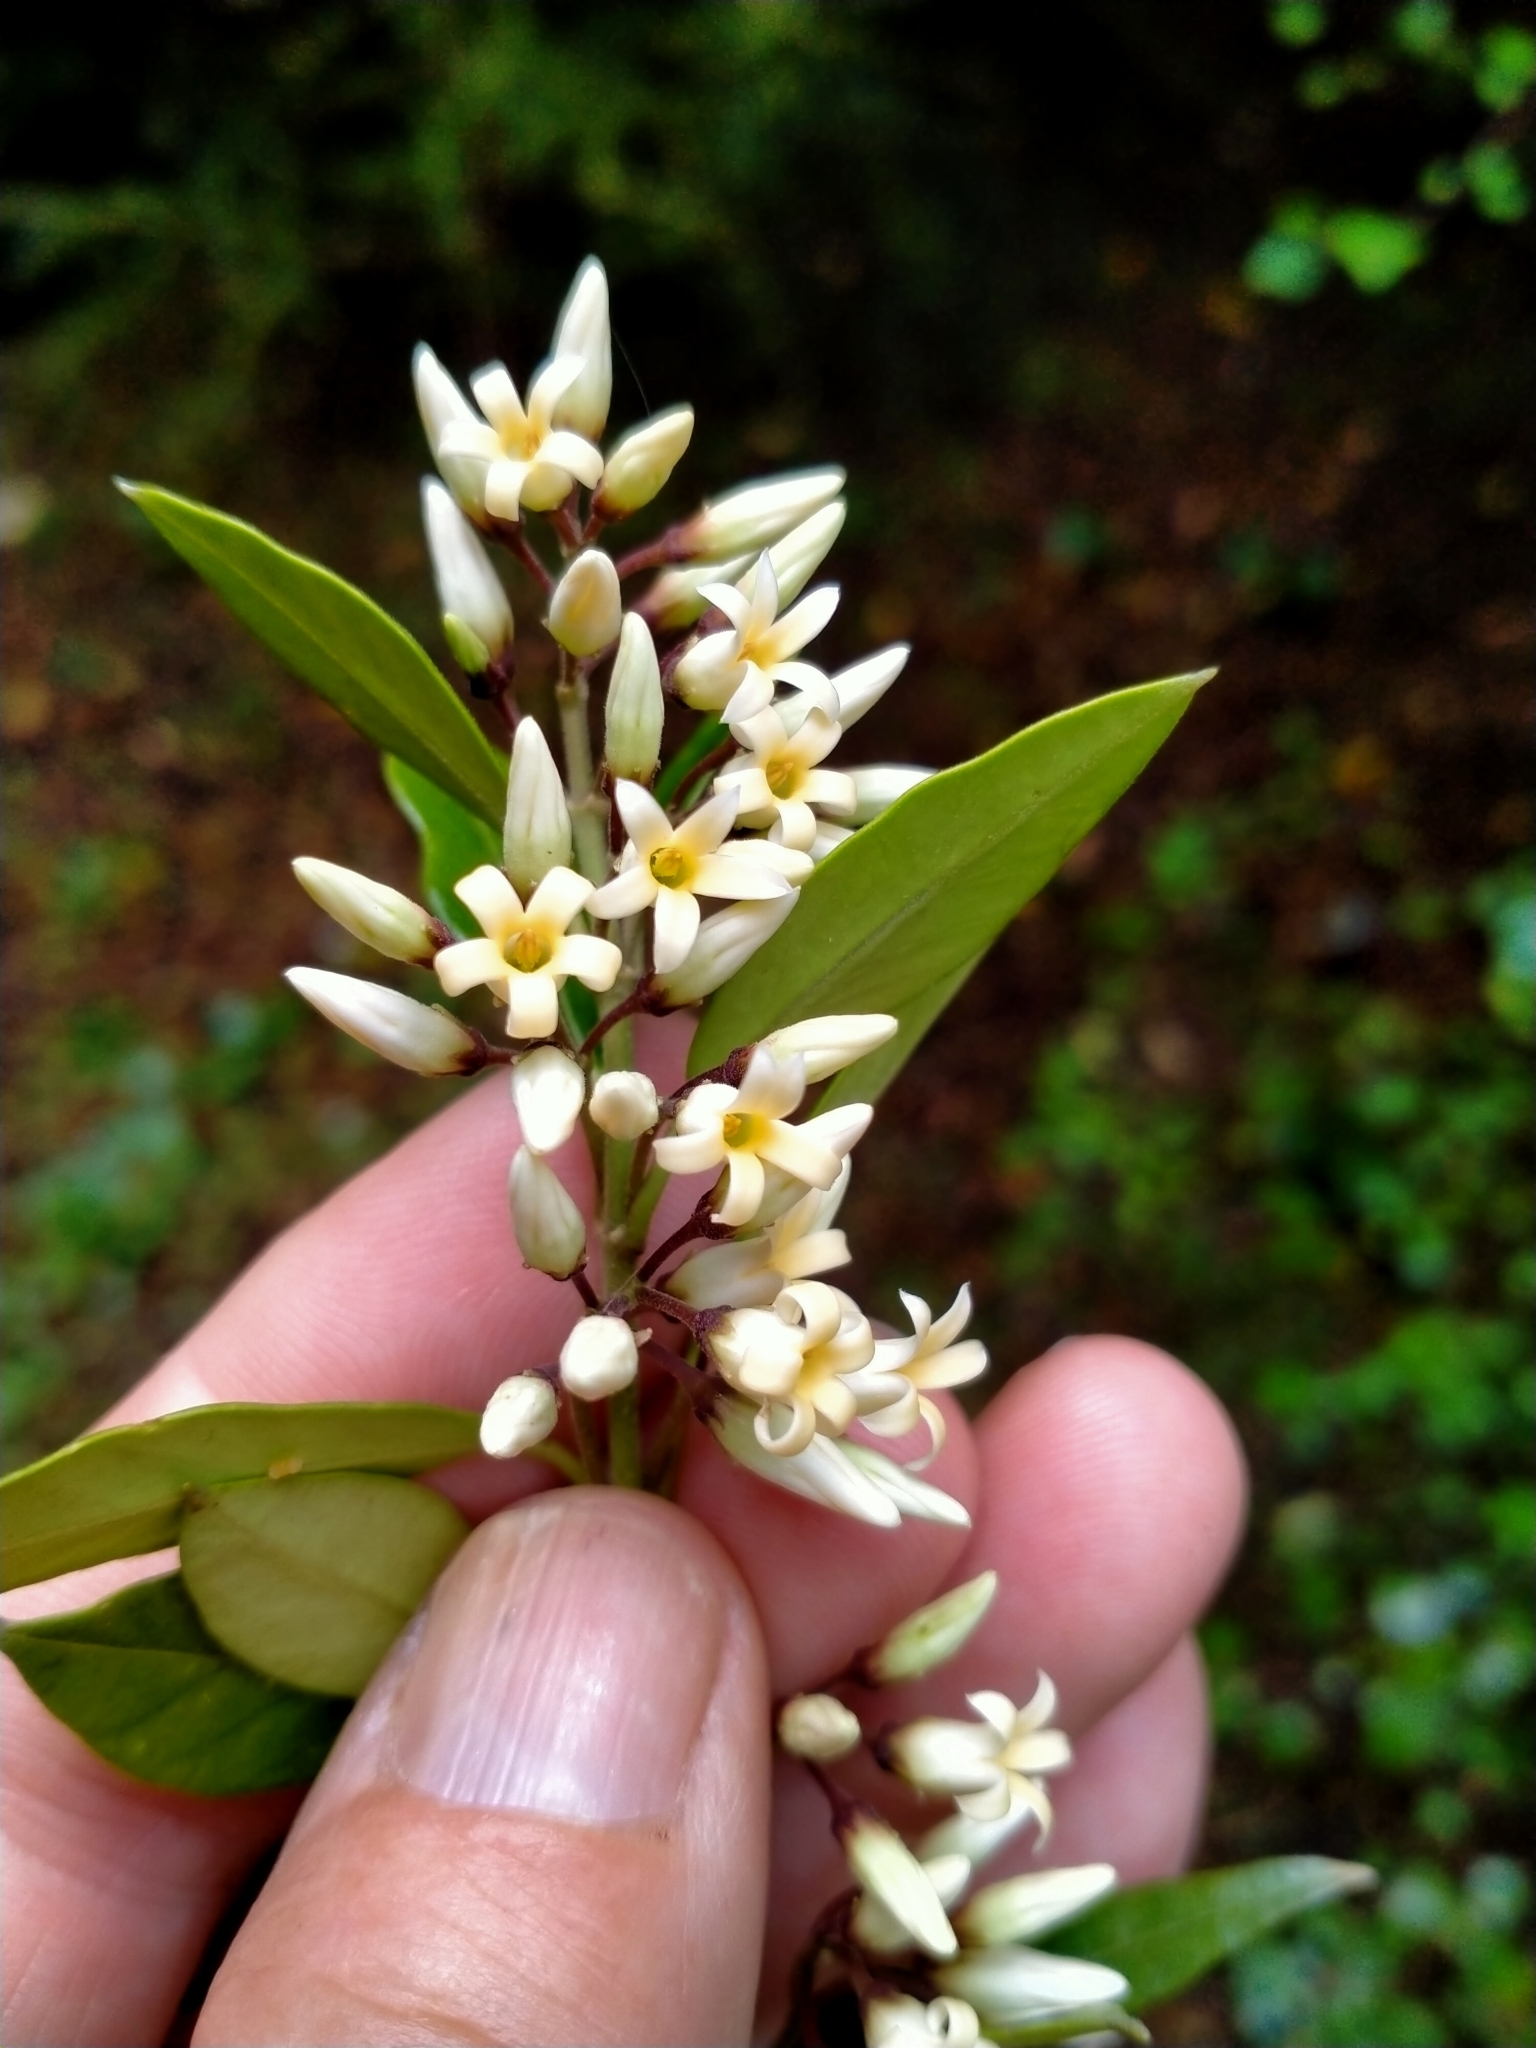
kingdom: Plantae
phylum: Tracheophyta
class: Magnoliopsida
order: Gentianales
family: Apocynaceae
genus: Parsonsia
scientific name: Parsonsia heterophylla
